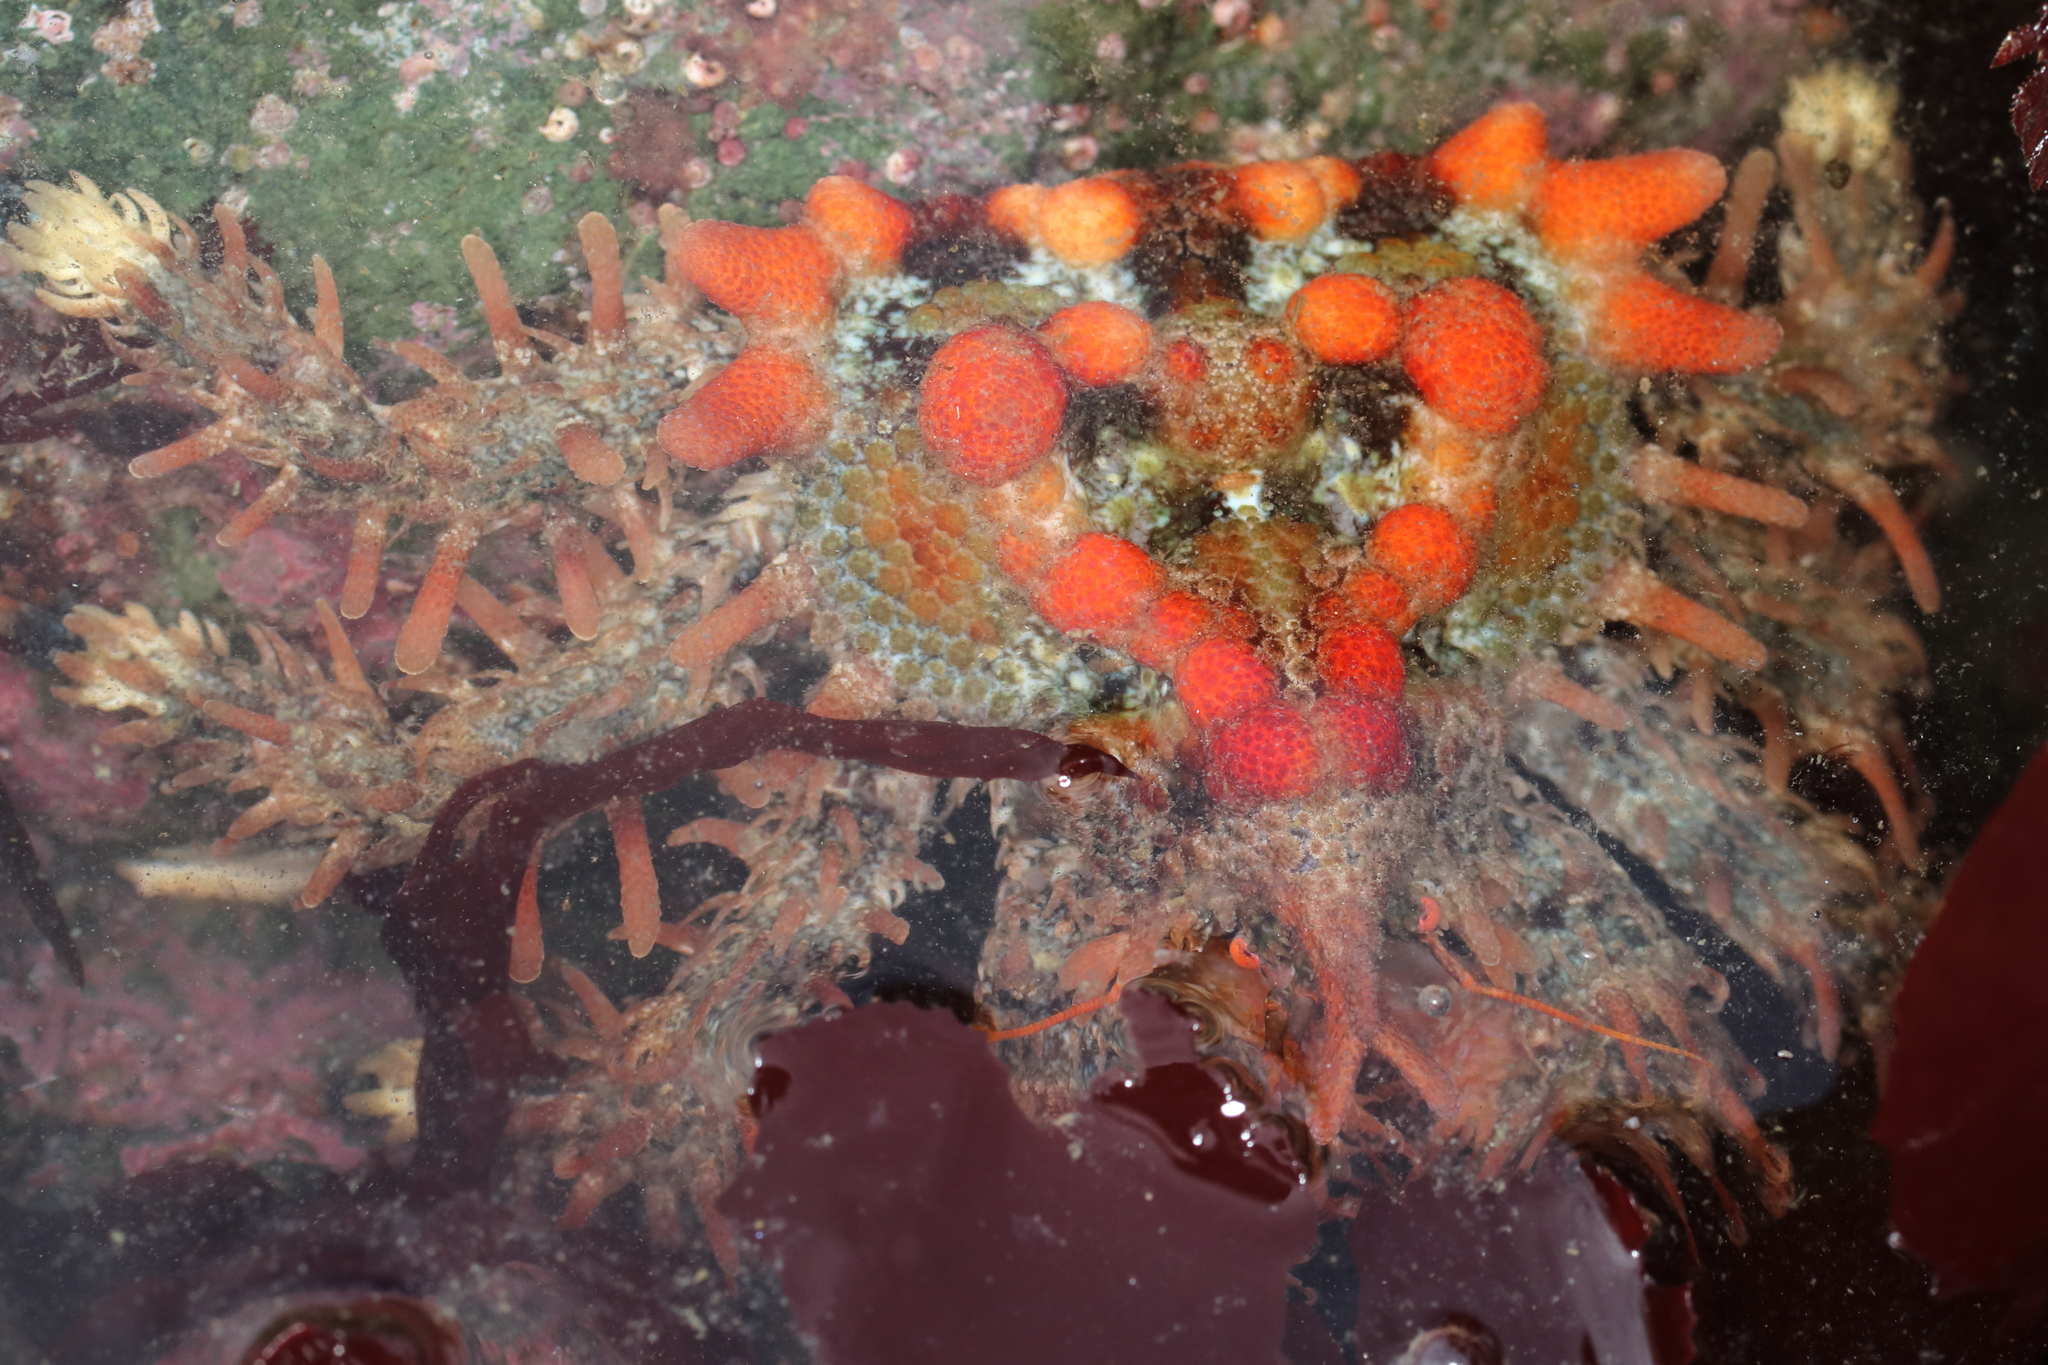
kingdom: Animalia
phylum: Arthropoda
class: Malacostraca
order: Decapoda
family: Lithodidae
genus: Phyllolithodes
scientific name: Phyllolithodes papillosus
